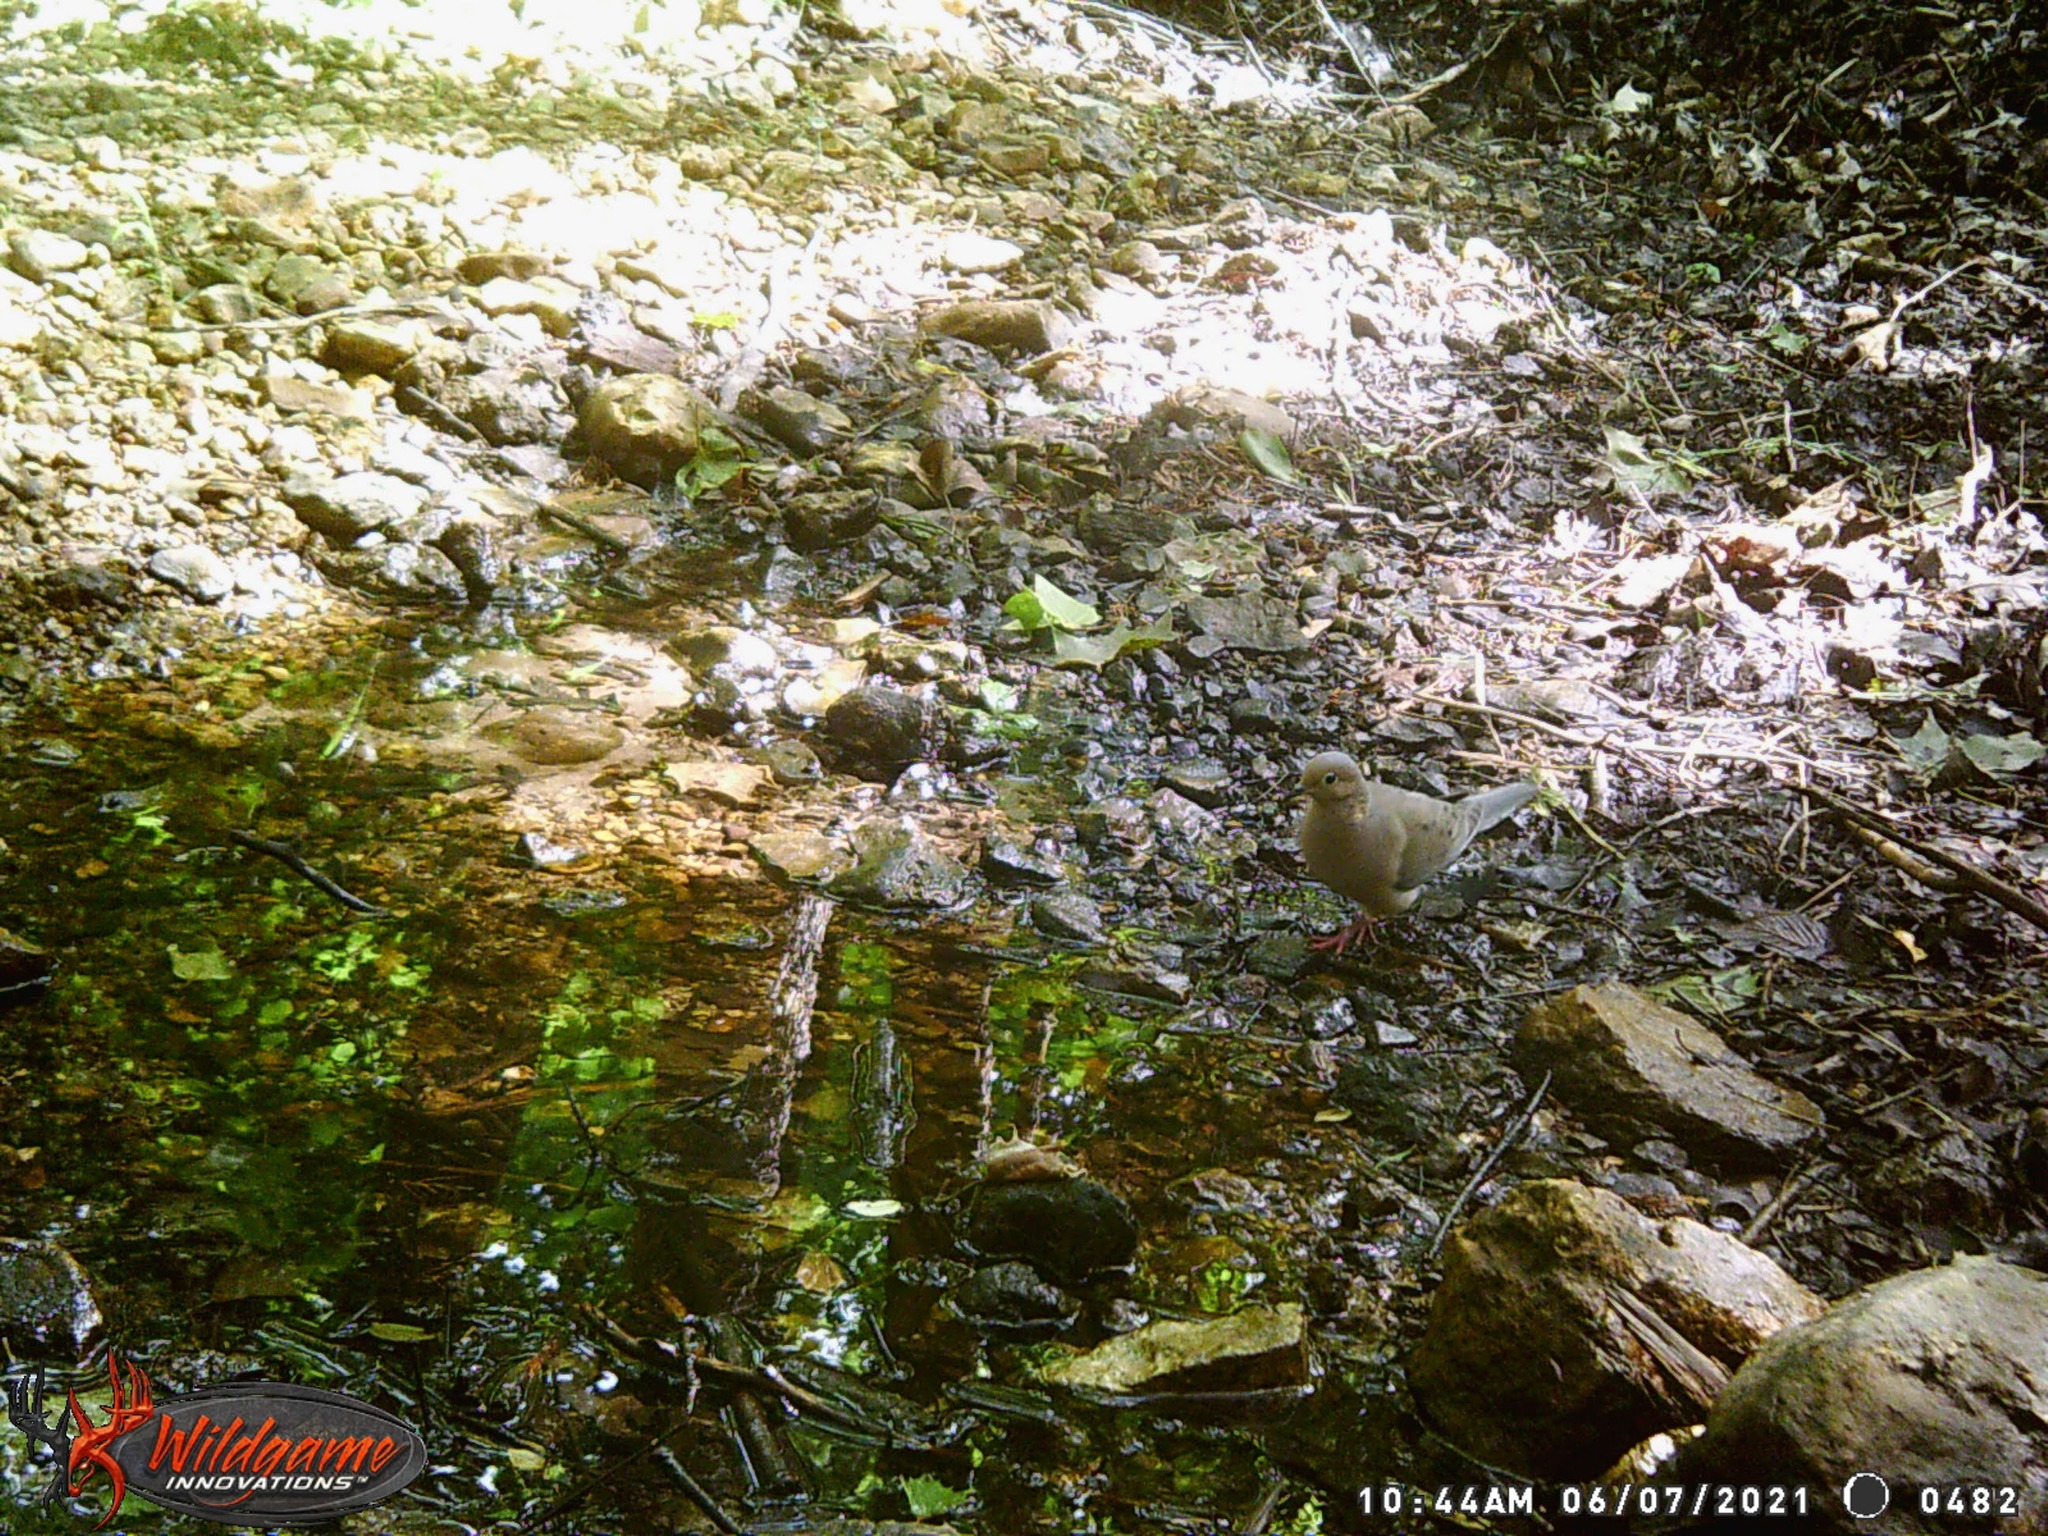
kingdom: Animalia
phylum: Chordata
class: Aves
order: Columbiformes
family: Columbidae
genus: Zenaida
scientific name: Zenaida macroura
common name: Mourning dove
